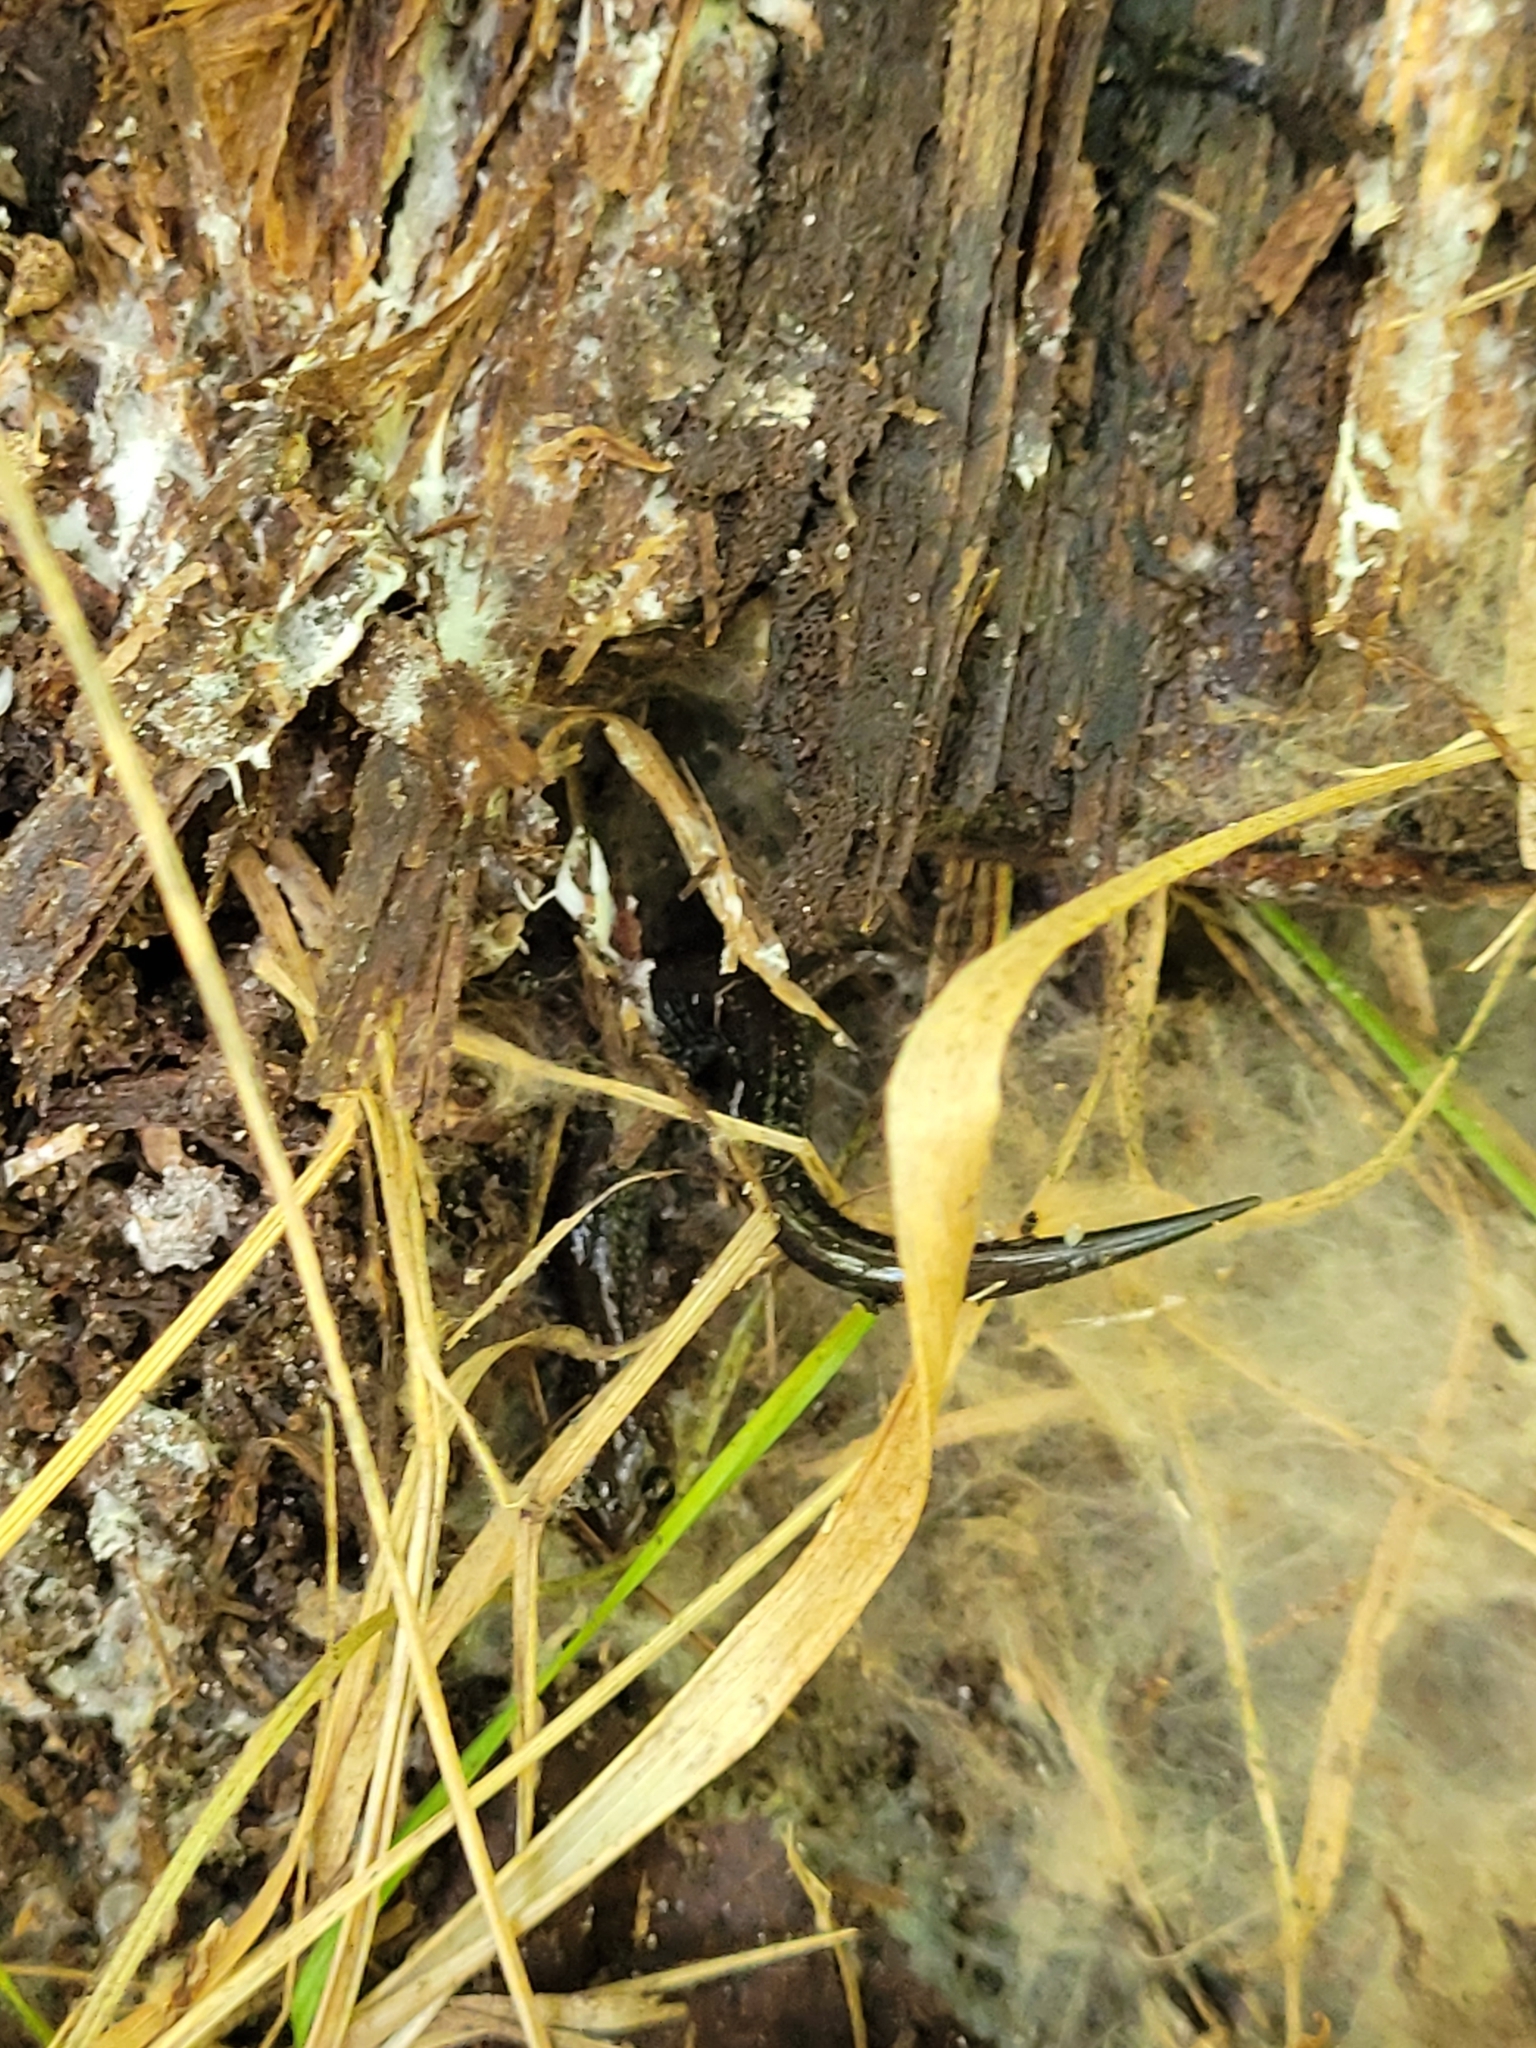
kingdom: Animalia
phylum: Chordata
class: Amphibia
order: Caudata
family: Plethodontidae
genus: Plethodon
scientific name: Plethodon cinereus
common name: Redback salamander
